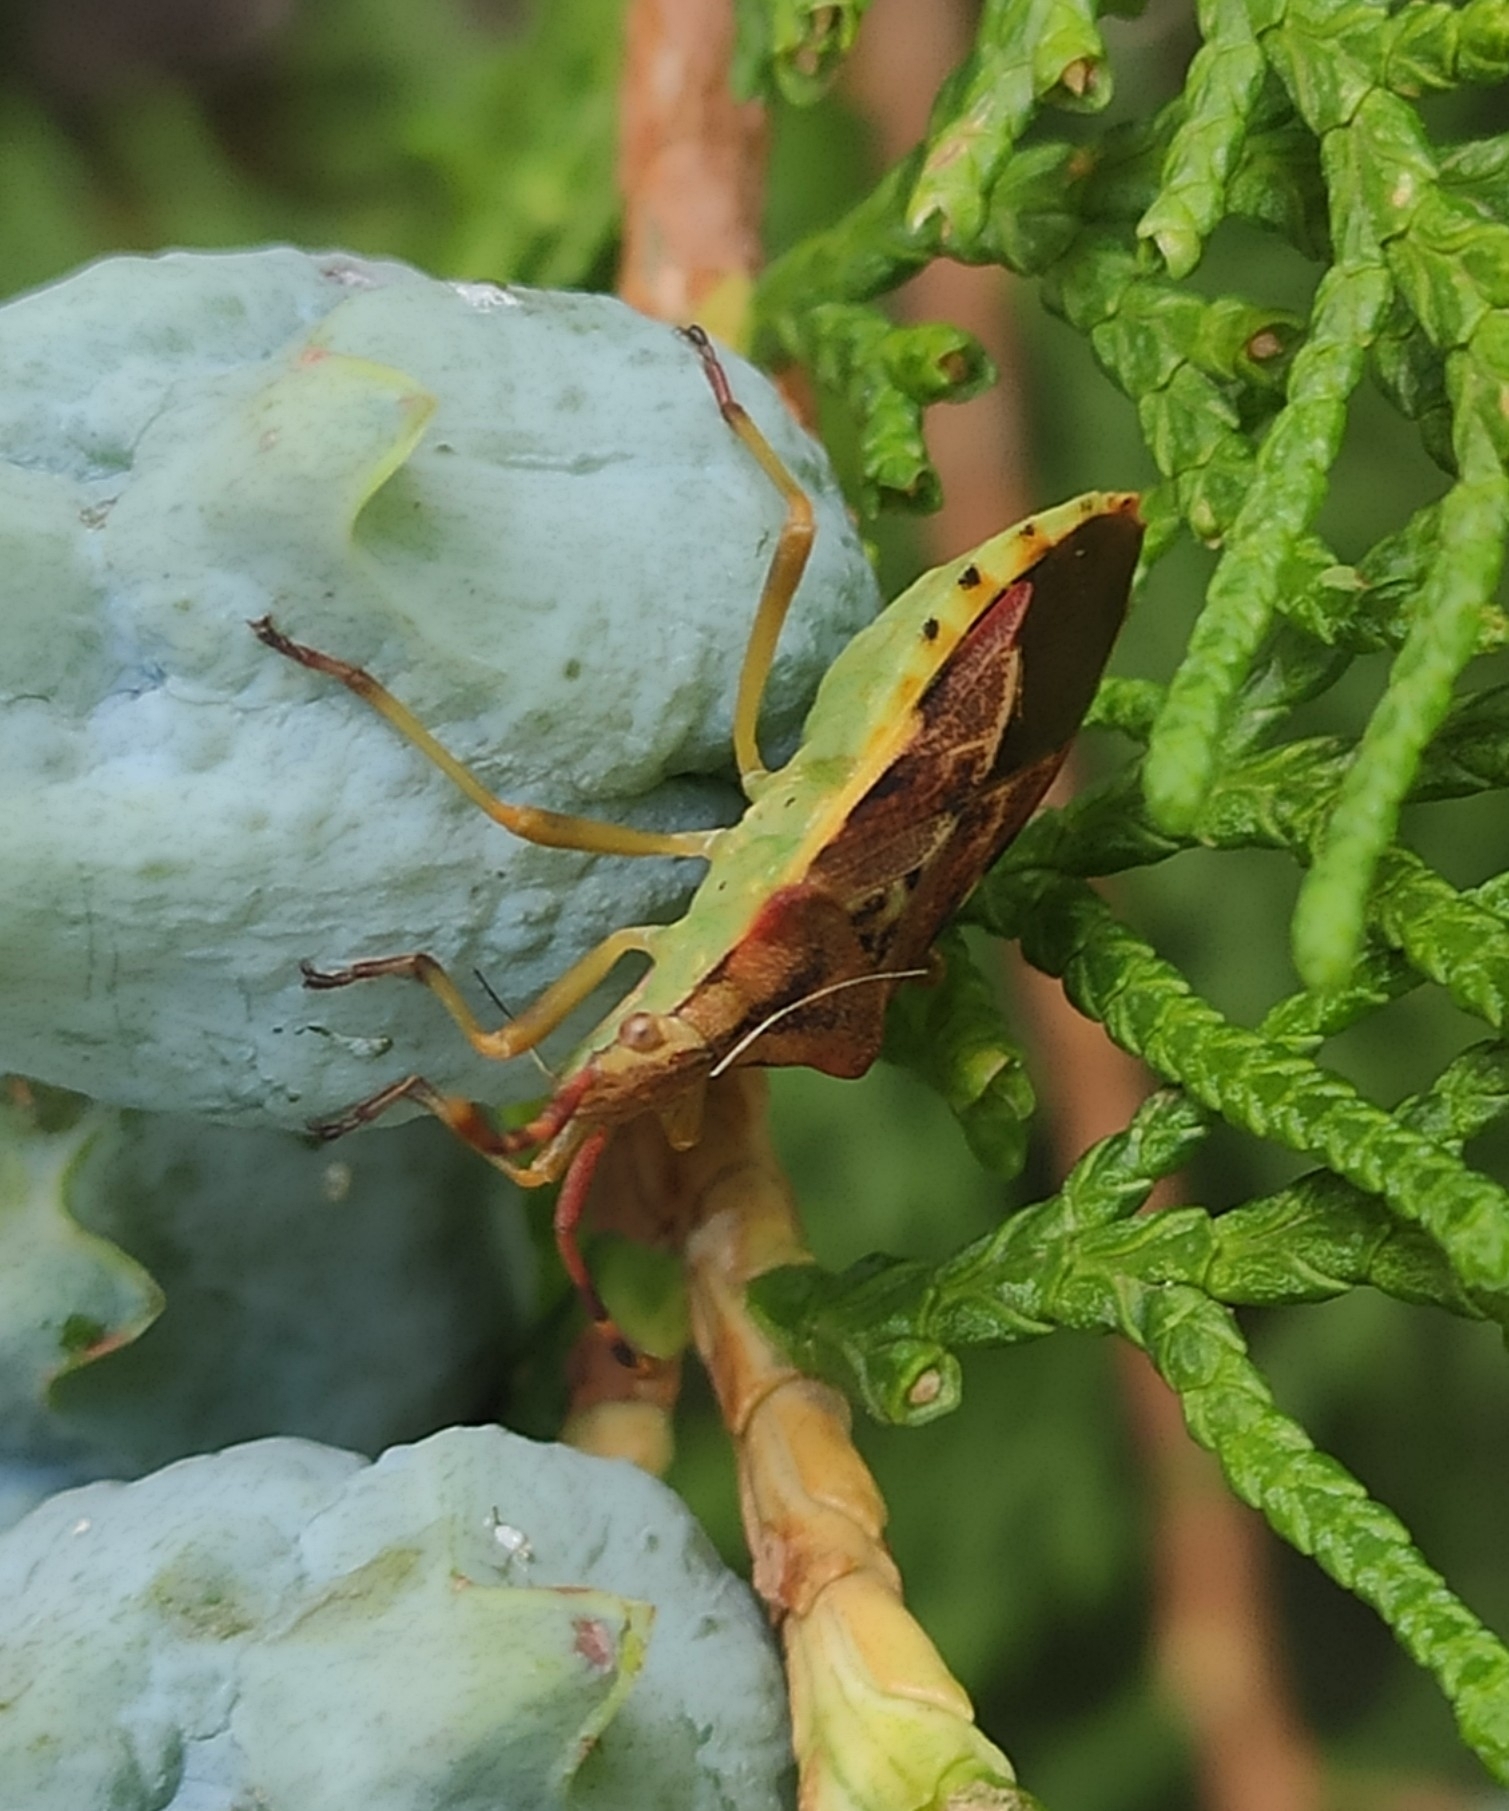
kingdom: Animalia
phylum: Arthropoda
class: Insecta
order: Hemiptera
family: Coreidae
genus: Gonocerus
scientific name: Gonocerus juniperi
